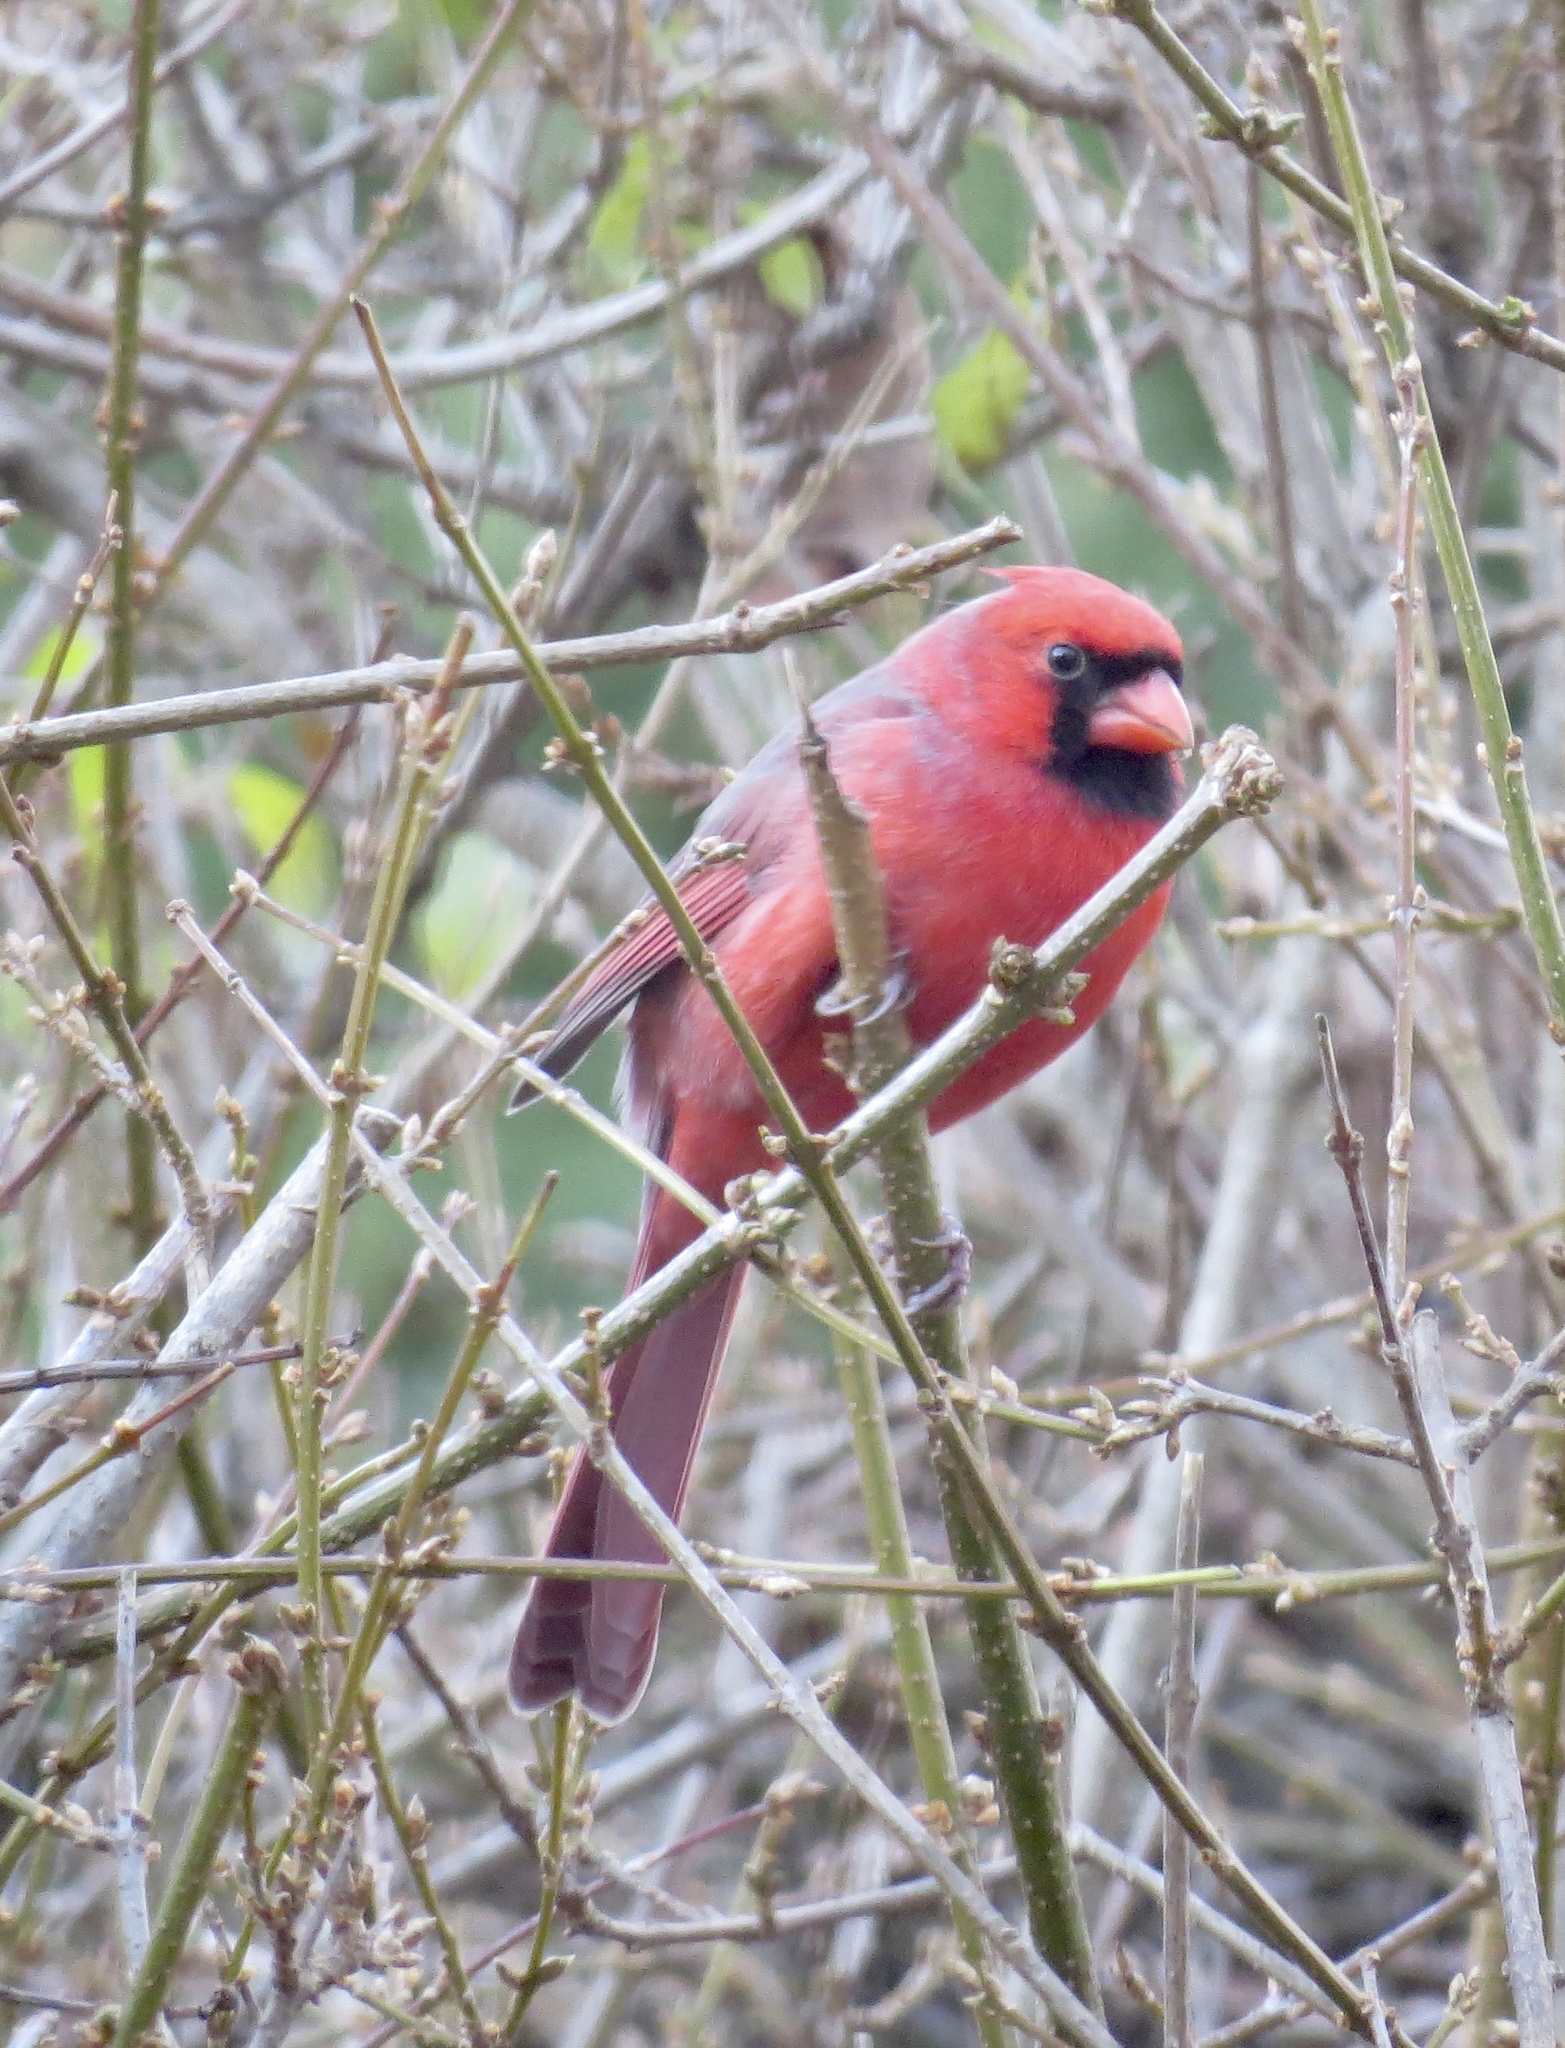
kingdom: Animalia
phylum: Chordata
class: Aves
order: Passeriformes
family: Cardinalidae
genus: Cardinalis
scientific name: Cardinalis cardinalis
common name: Northern cardinal
